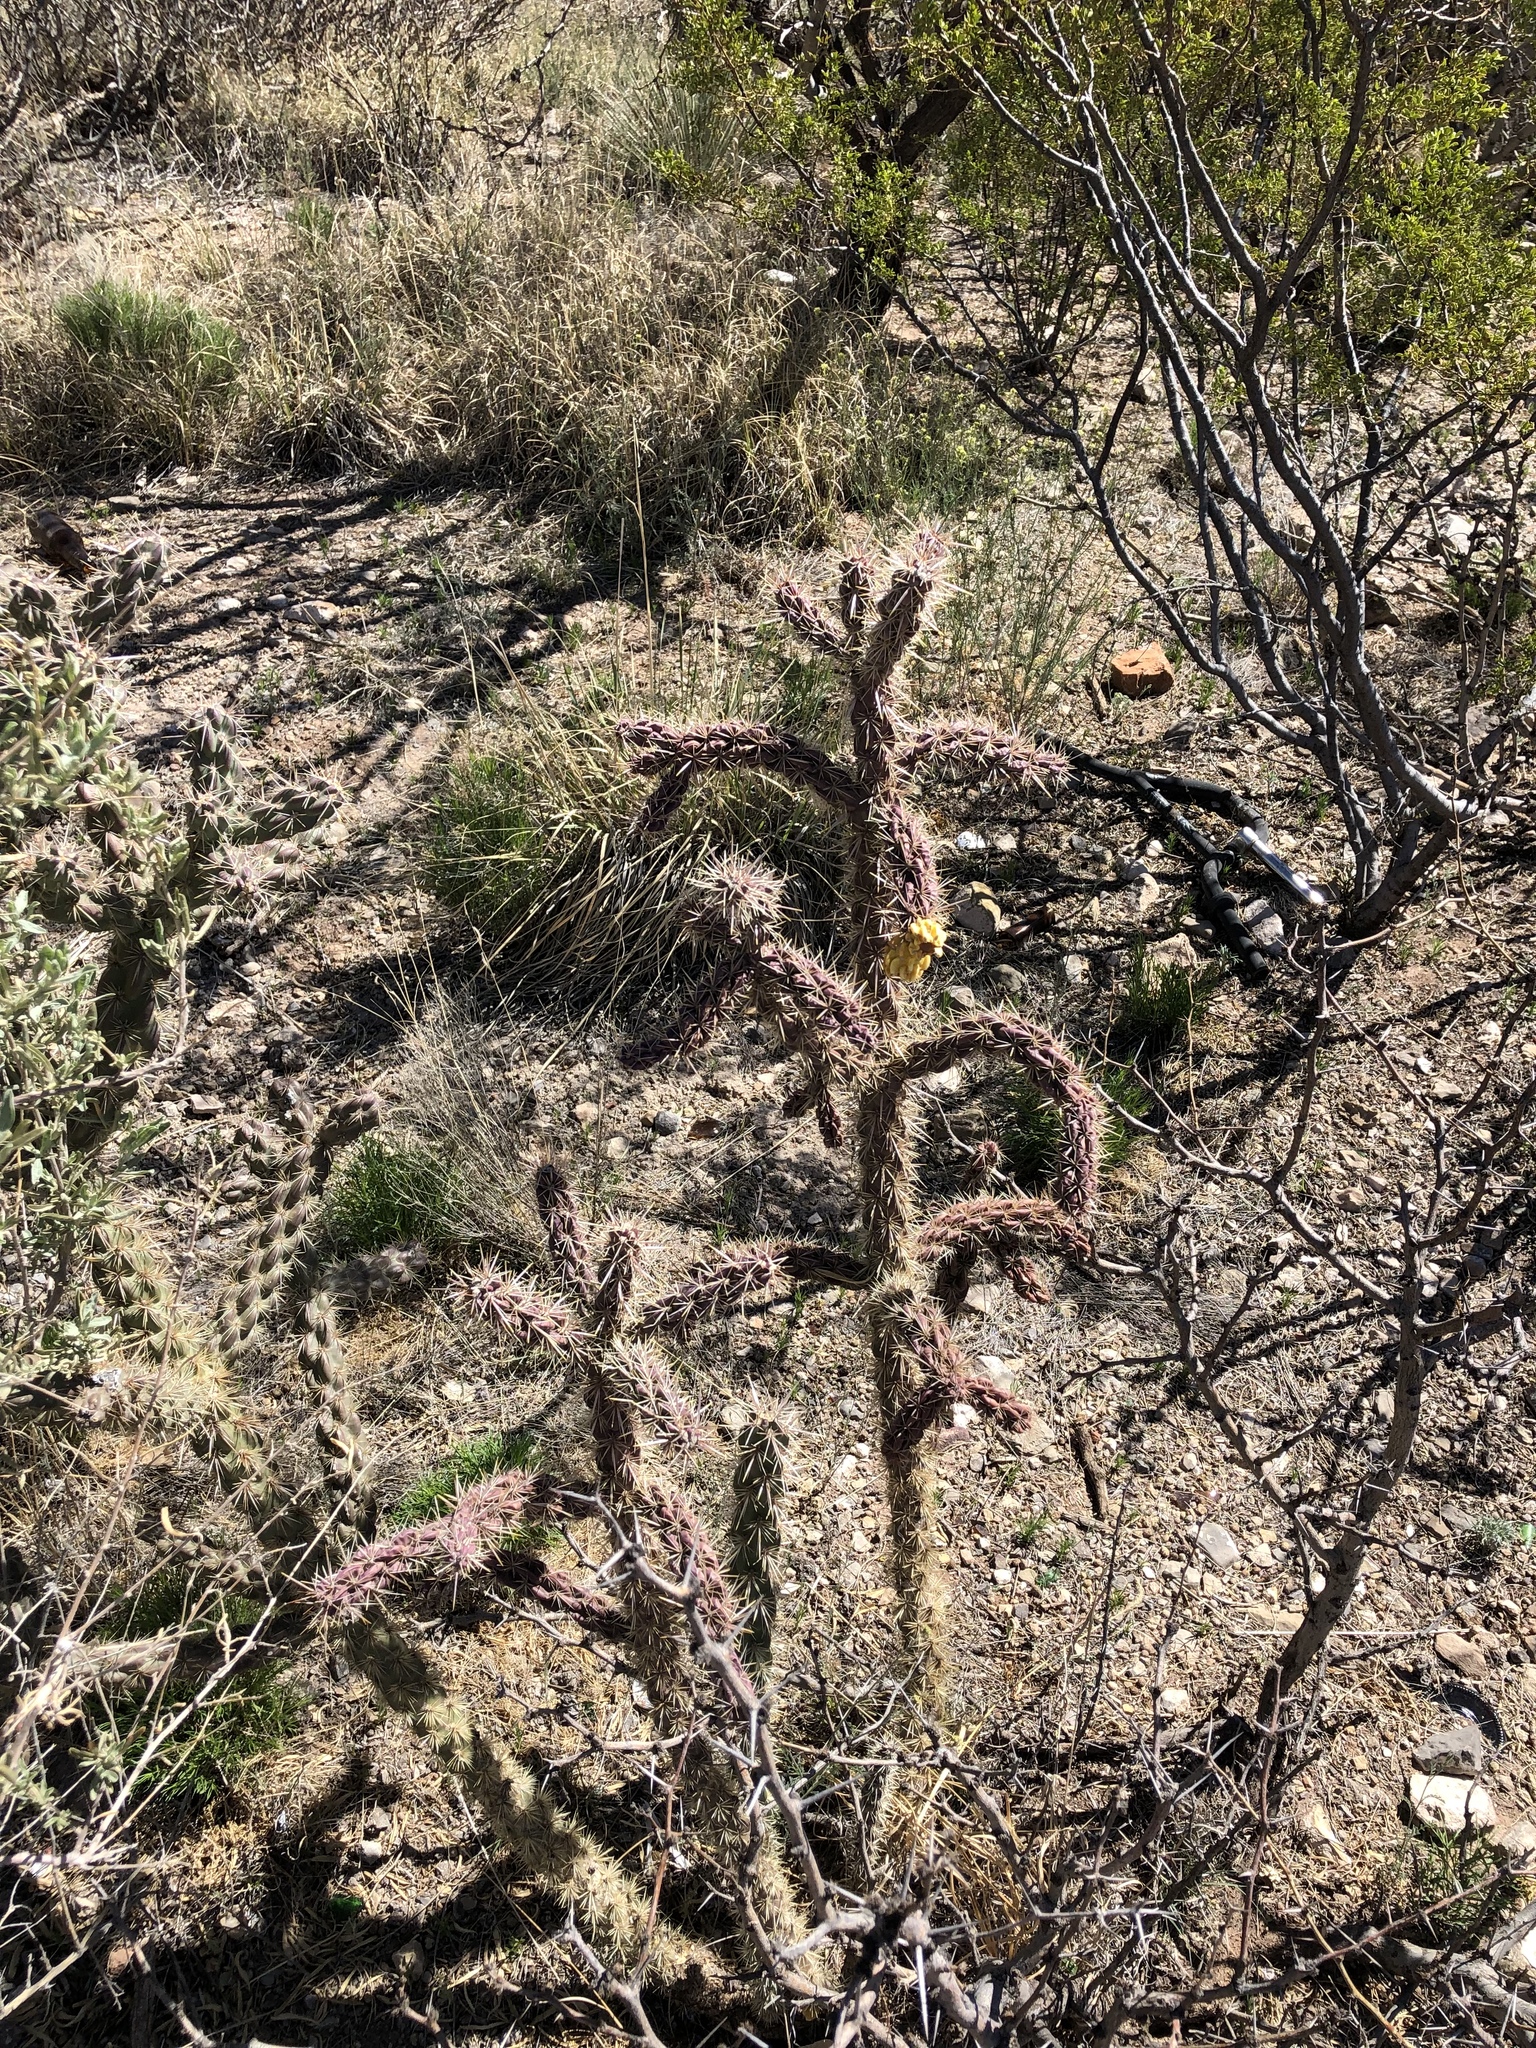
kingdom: Plantae
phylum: Tracheophyta
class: Magnoliopsida
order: Caryophyllales
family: Cactaceae
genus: Cylindropuntia
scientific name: Cylindropuntia imbricata
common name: Candelabrum cactus
